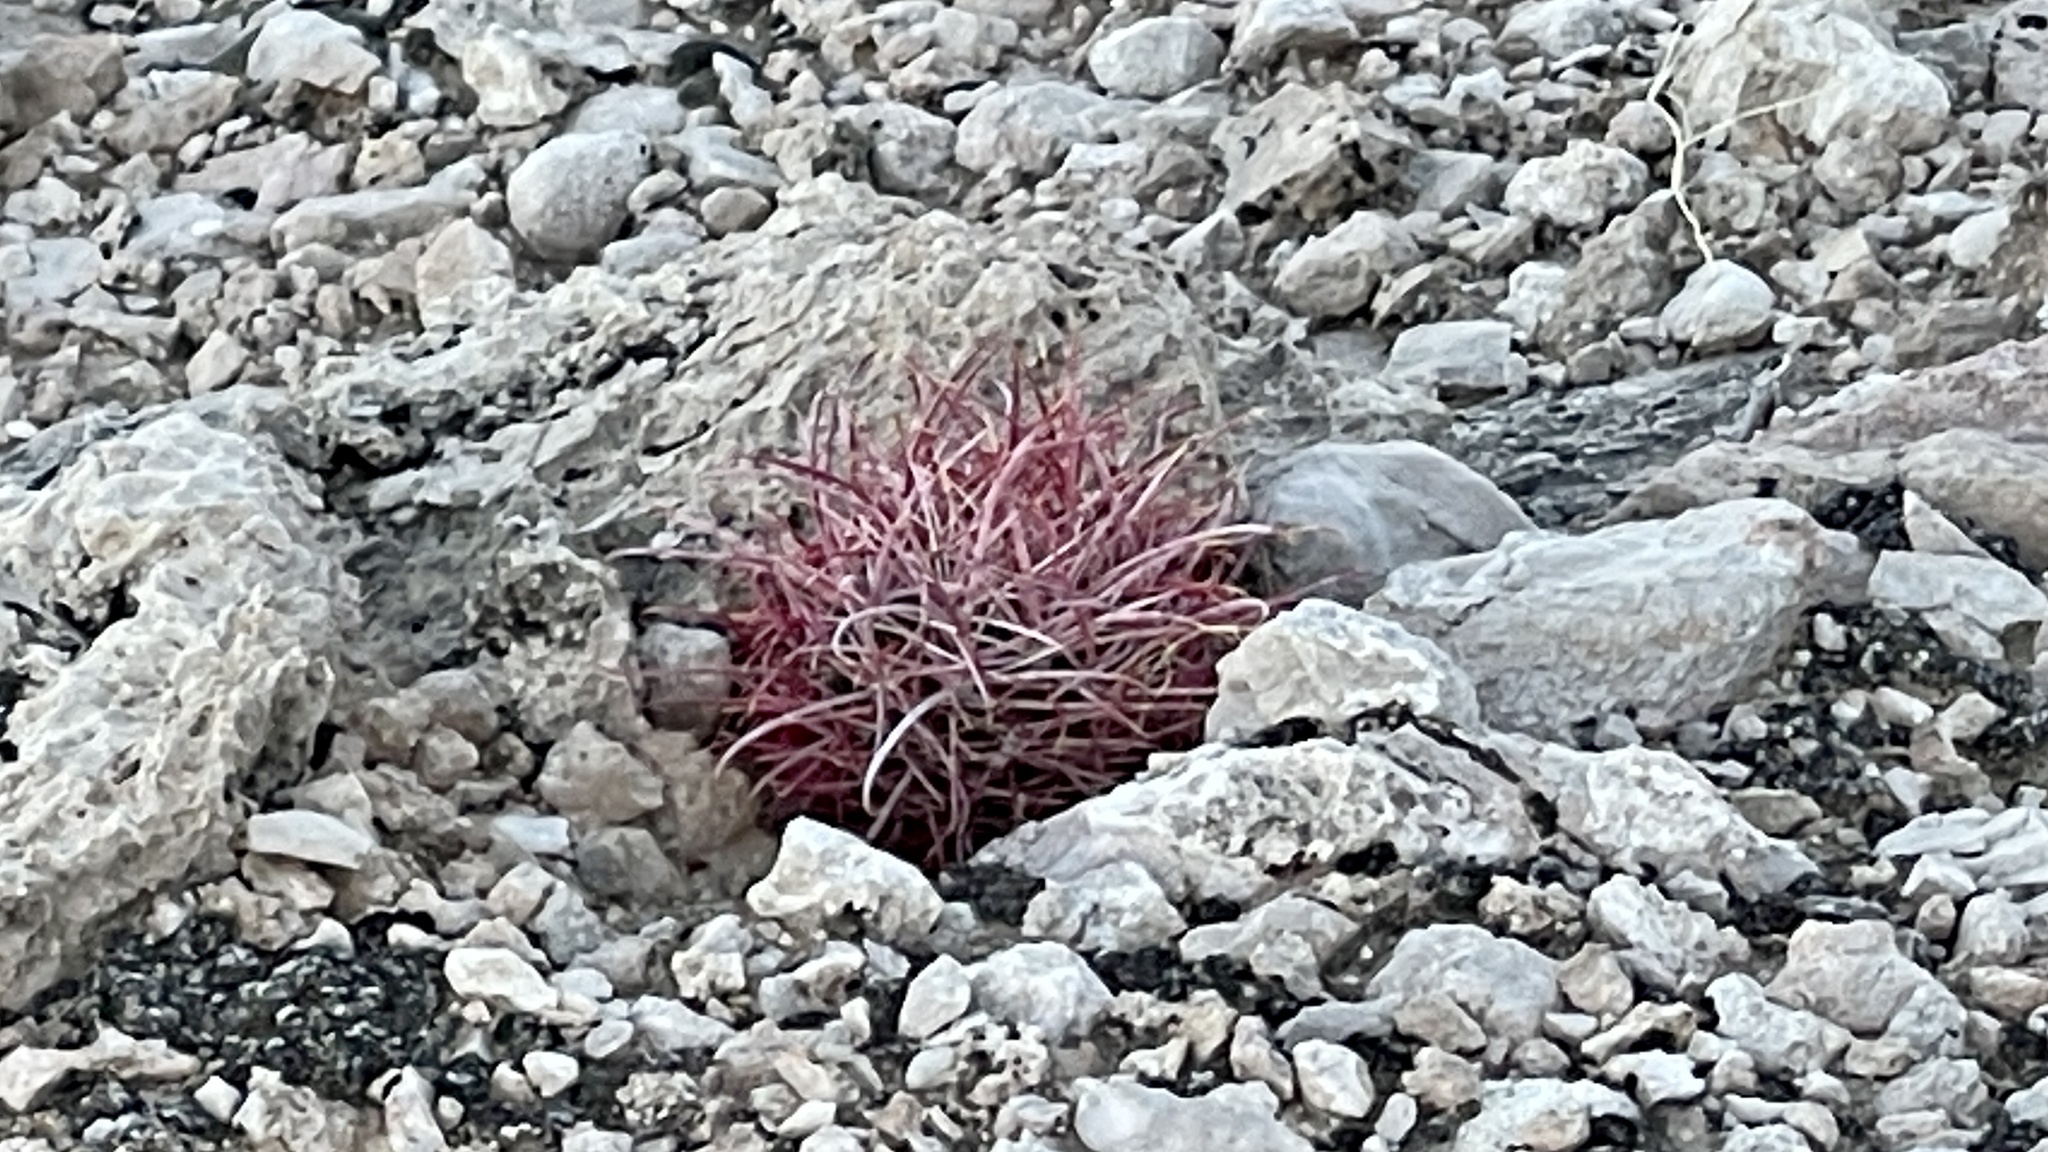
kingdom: Plantae
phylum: Tracheophyta
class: Magnoliopsida
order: Caryophyllales
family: Cactaceae
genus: Ferocactus
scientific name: Ferocactus cylindraceus
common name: California barrel cactus
